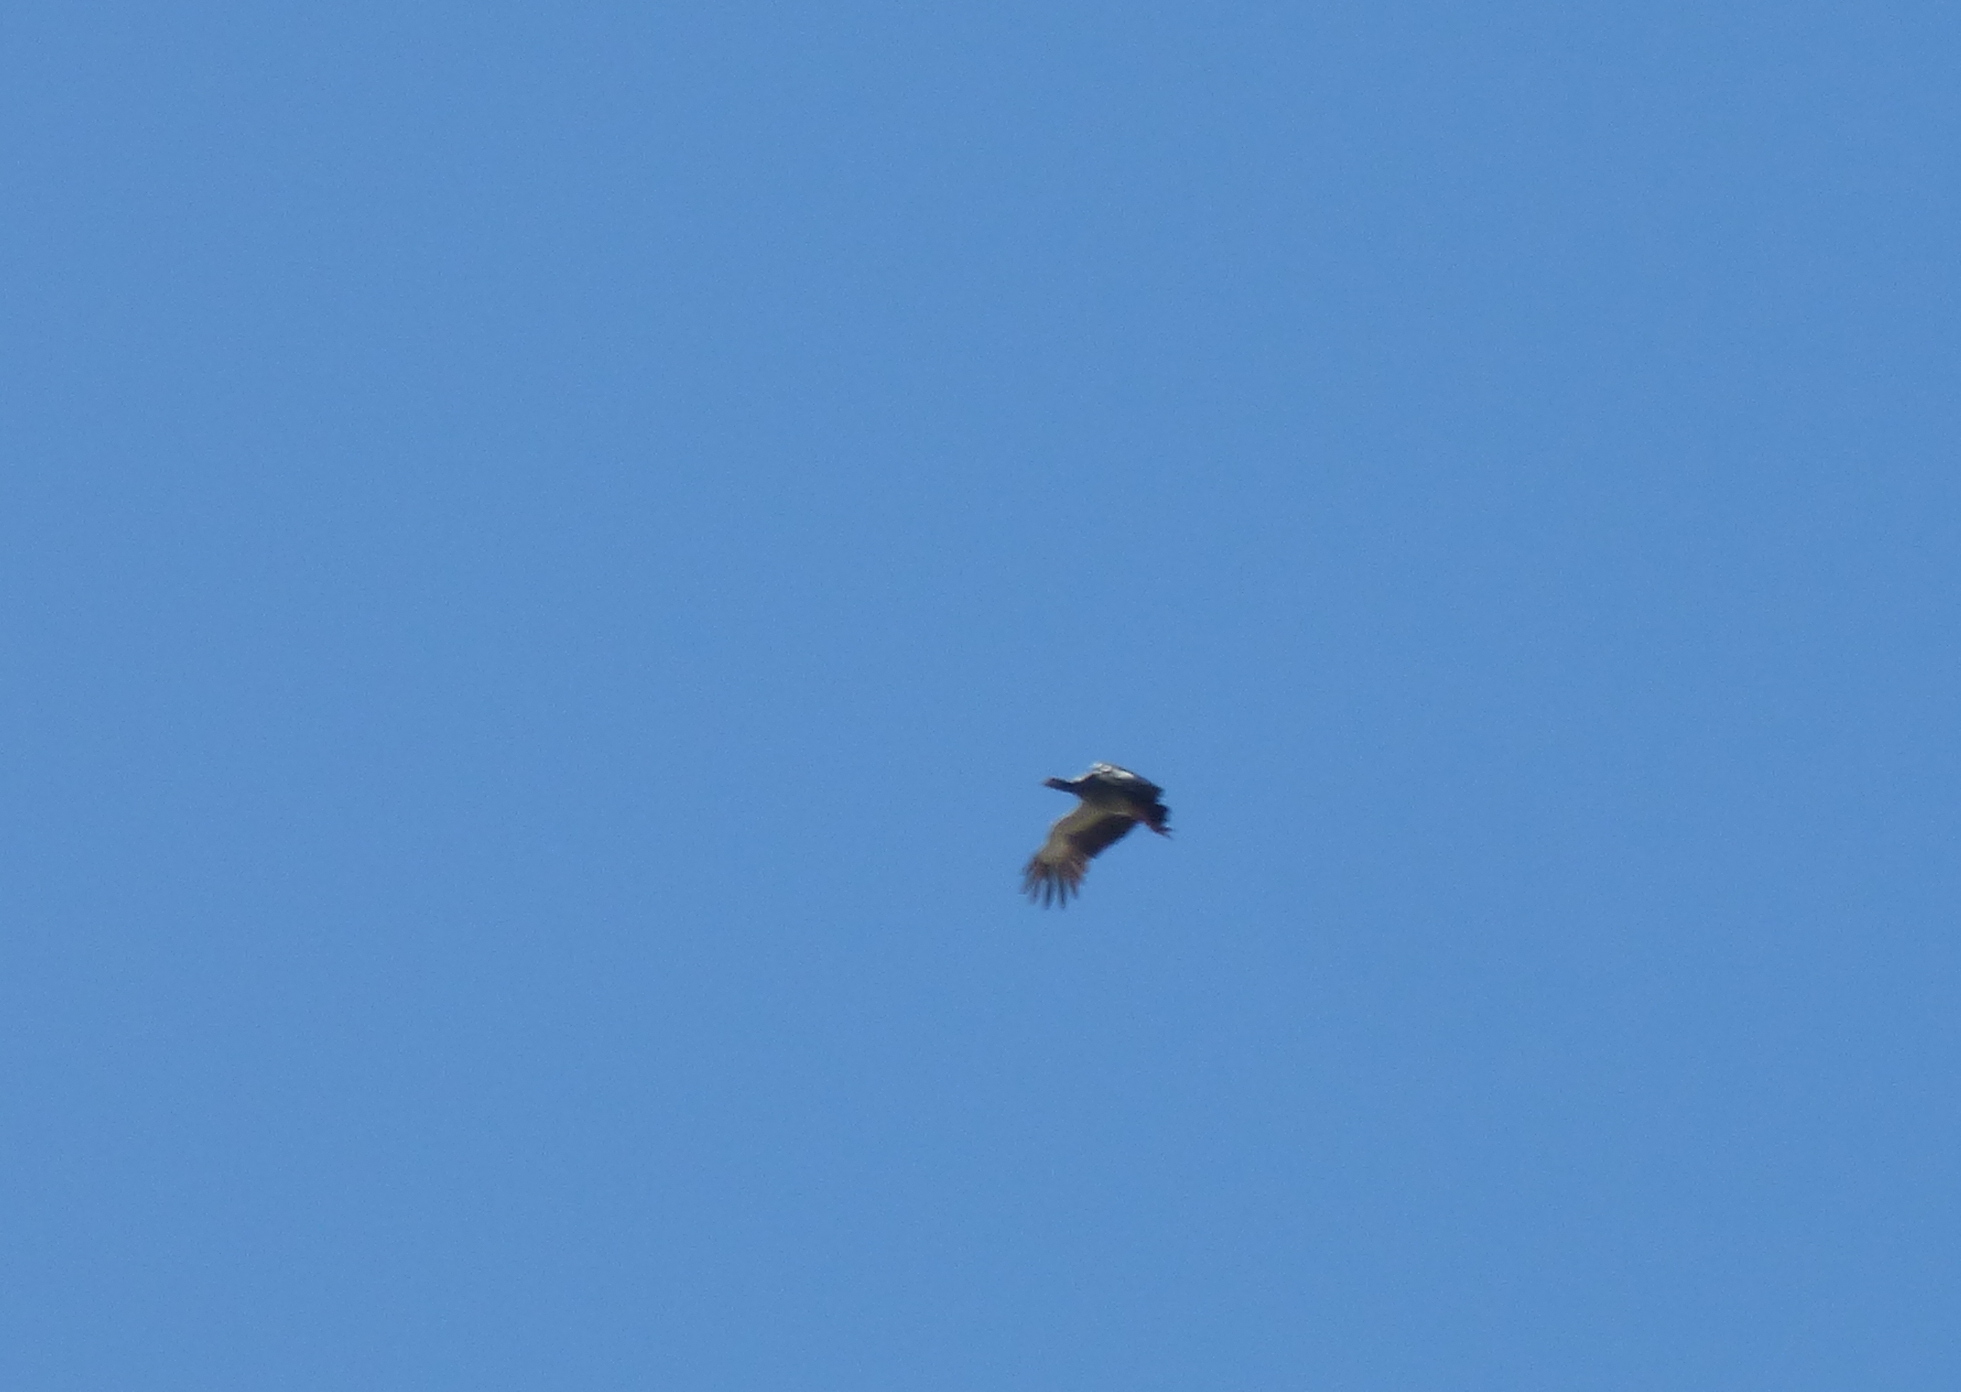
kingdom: Animalia
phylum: Chordata
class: Aves
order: Anseriformes
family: Anhimidae
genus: Chauna
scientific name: Chauna torquata
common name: Southern screamer
